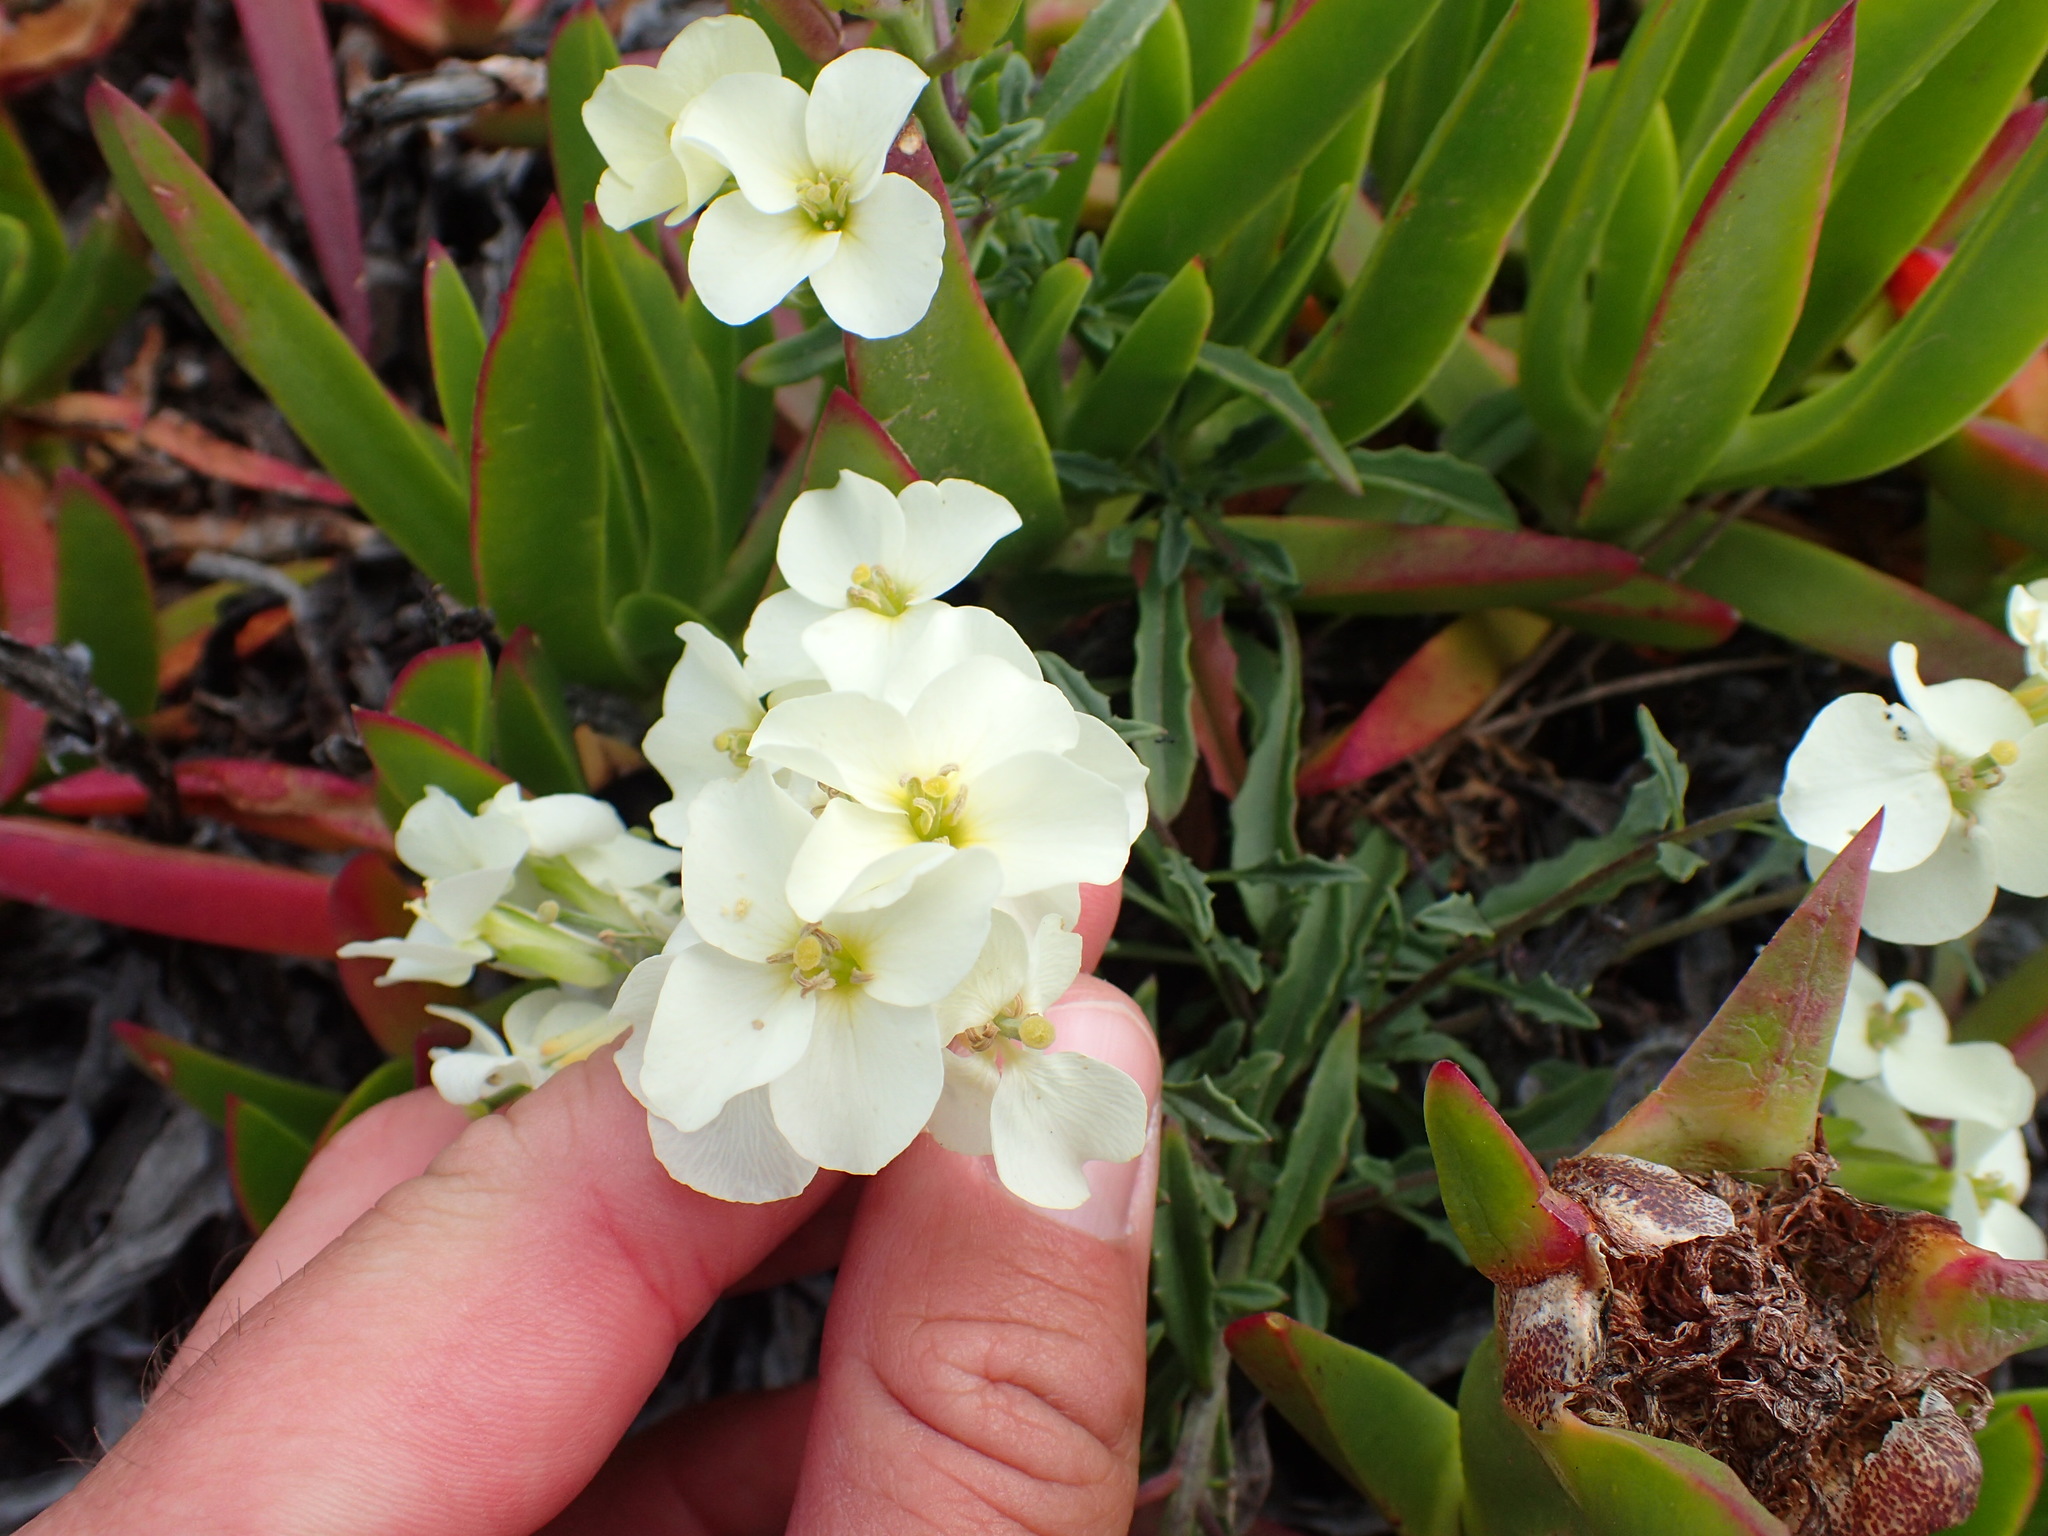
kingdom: Plantae
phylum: Tracheophyta
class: Magnoliopsida
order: Brassicales
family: Brassicaceae
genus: Erysimum
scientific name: Erysimum concinnum
